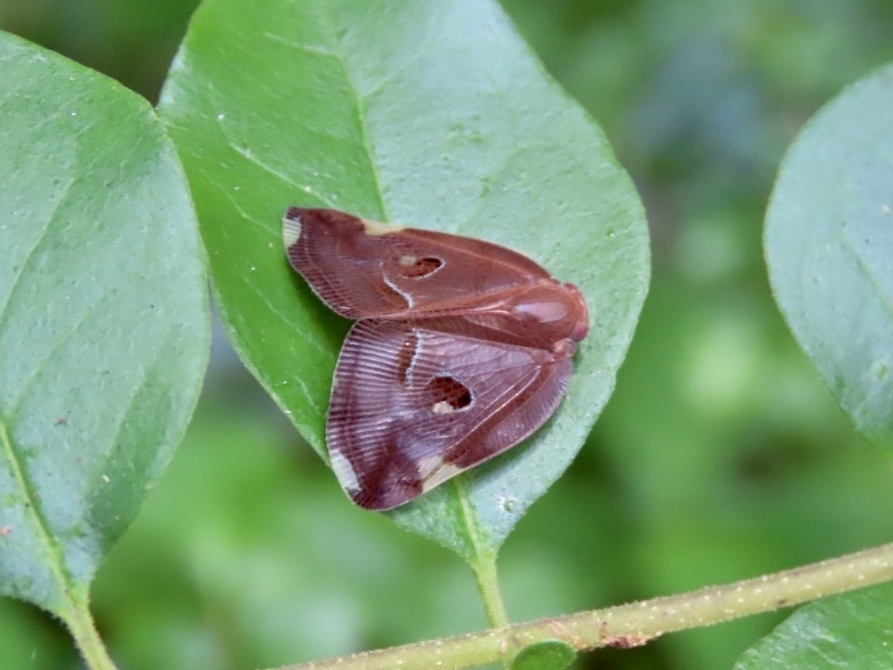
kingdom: Animalia
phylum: Arthropoda
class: Insecta
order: Hemiptera
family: Ricaniidae
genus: Ricania
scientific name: Ricania guttata
